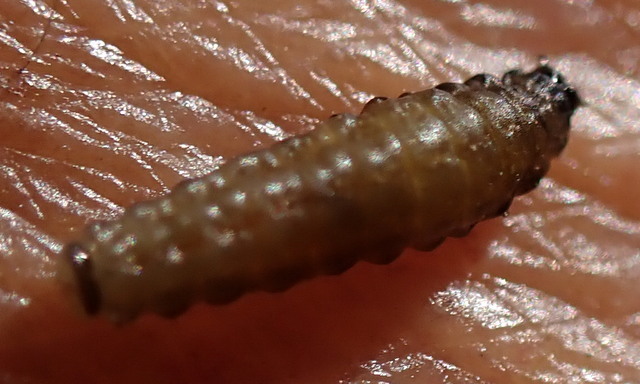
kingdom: Animalia
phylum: Arthropoda
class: Insecta
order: Coleoptera
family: Chrysomelidae
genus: Agasicles
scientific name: Agasicles hygrophila
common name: Alligatorweed flea beetle
